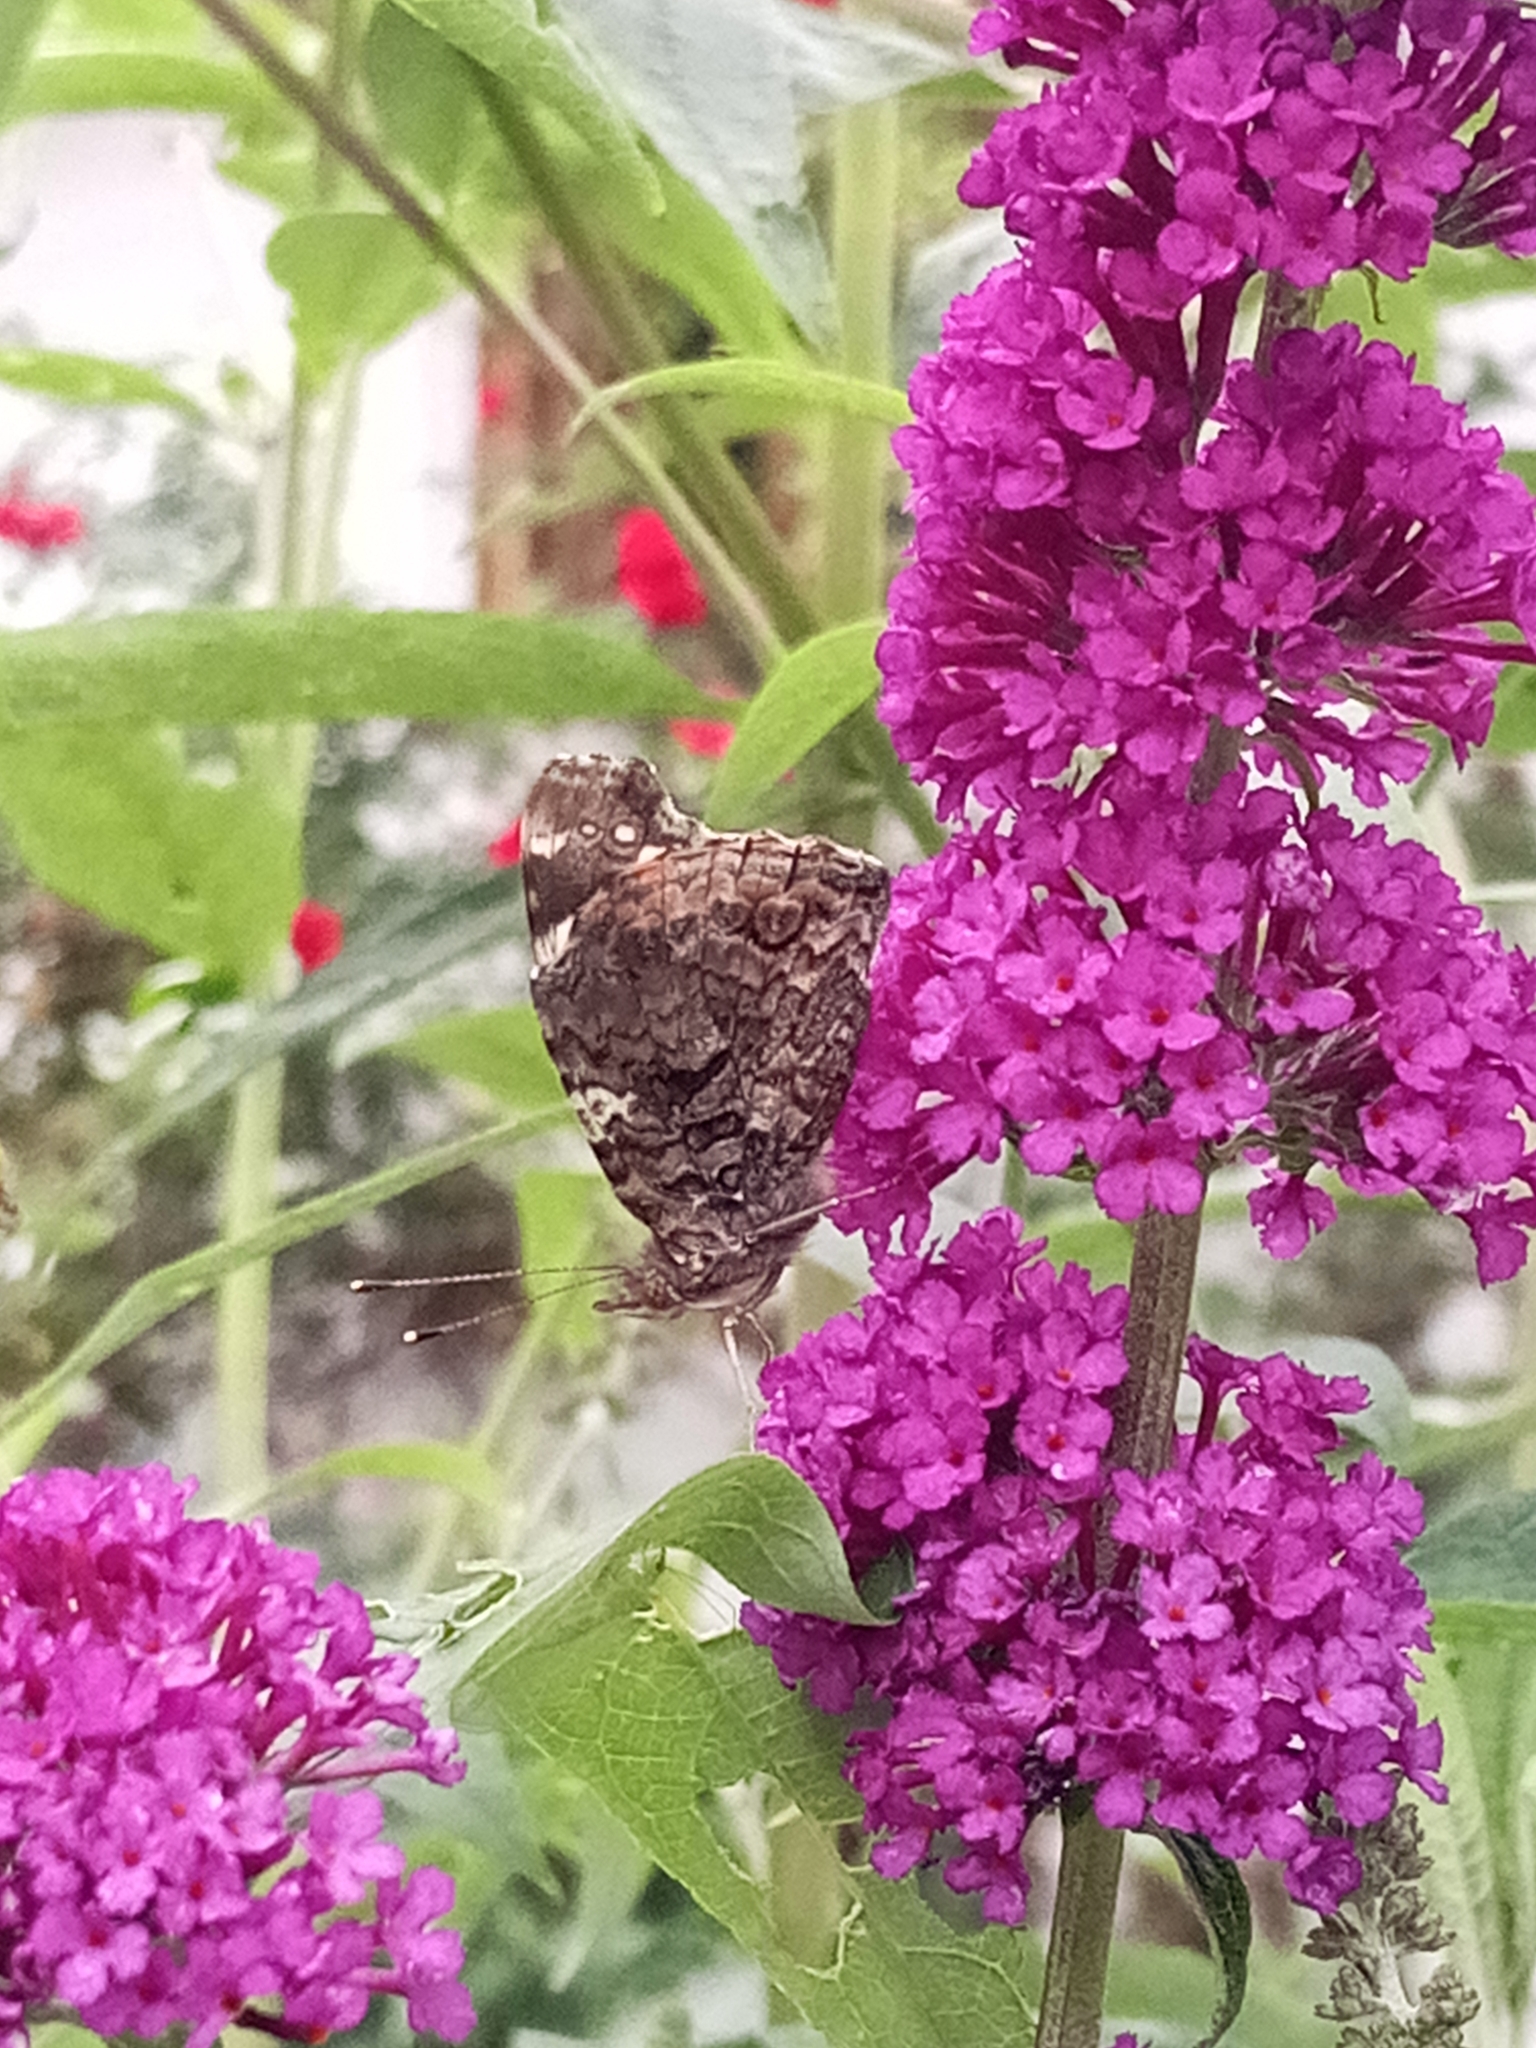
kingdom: Animalia
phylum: Arthropoda
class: Insecta
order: Lepidoptera
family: Nymphalidae
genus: Vanessa
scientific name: Vanessa atalanta
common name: Red admiral
